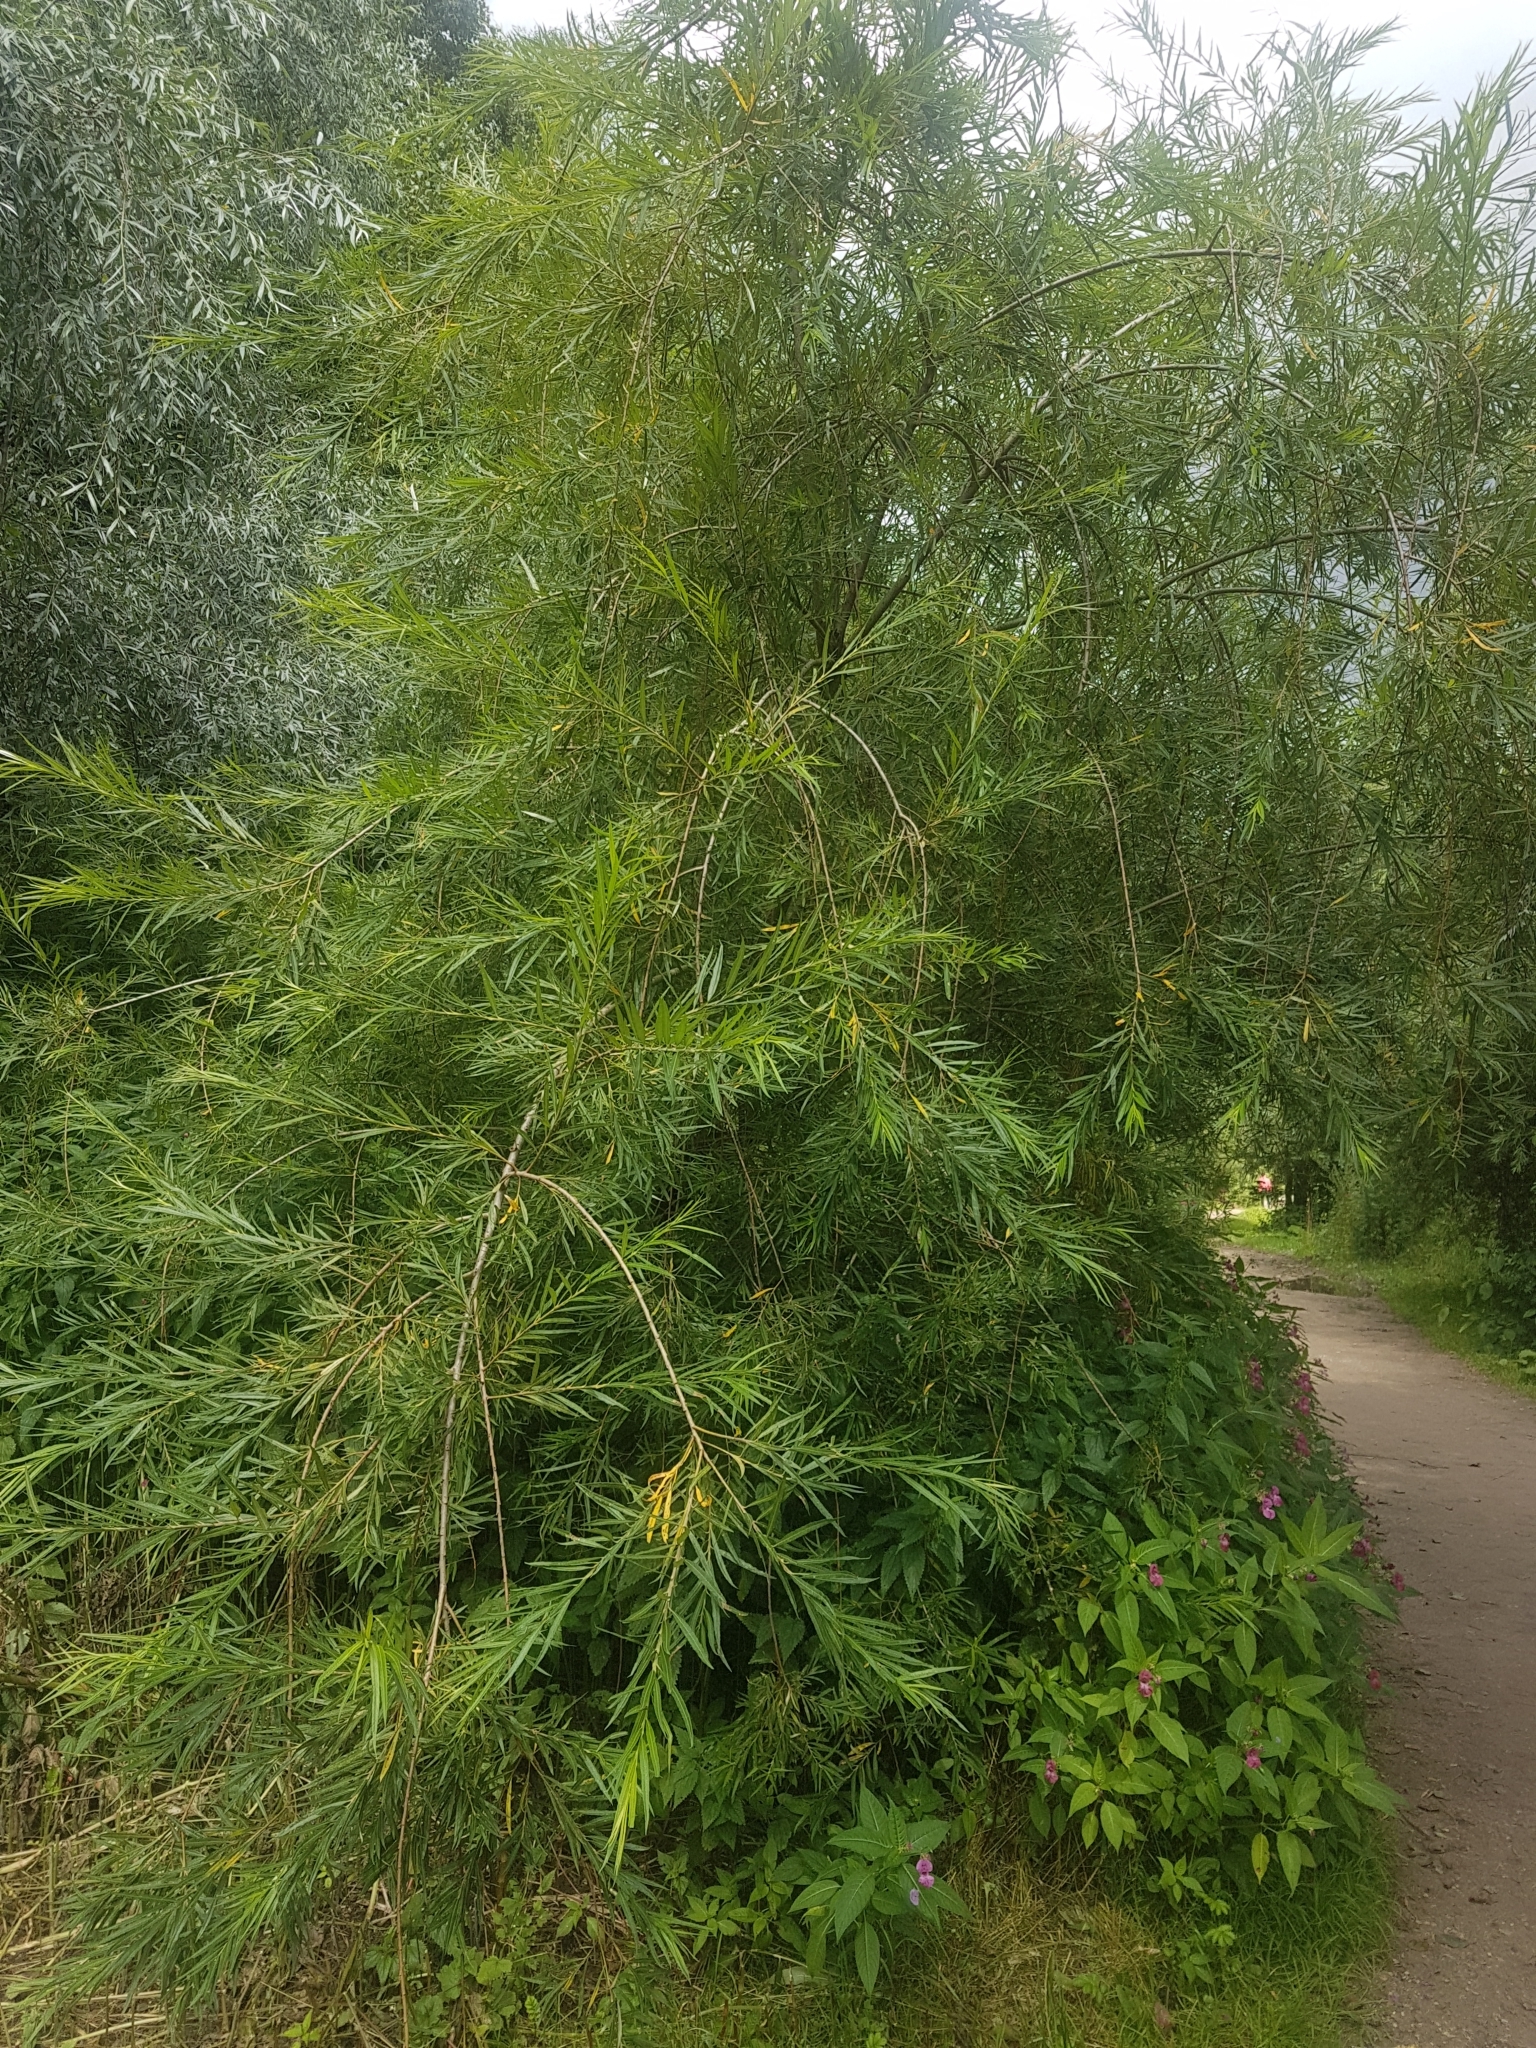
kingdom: Plantae
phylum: Tracheophyta
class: Magnoliopsida
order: Malpighiales
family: Salicaceae
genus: Salix
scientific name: Salix viminalis
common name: Osier
